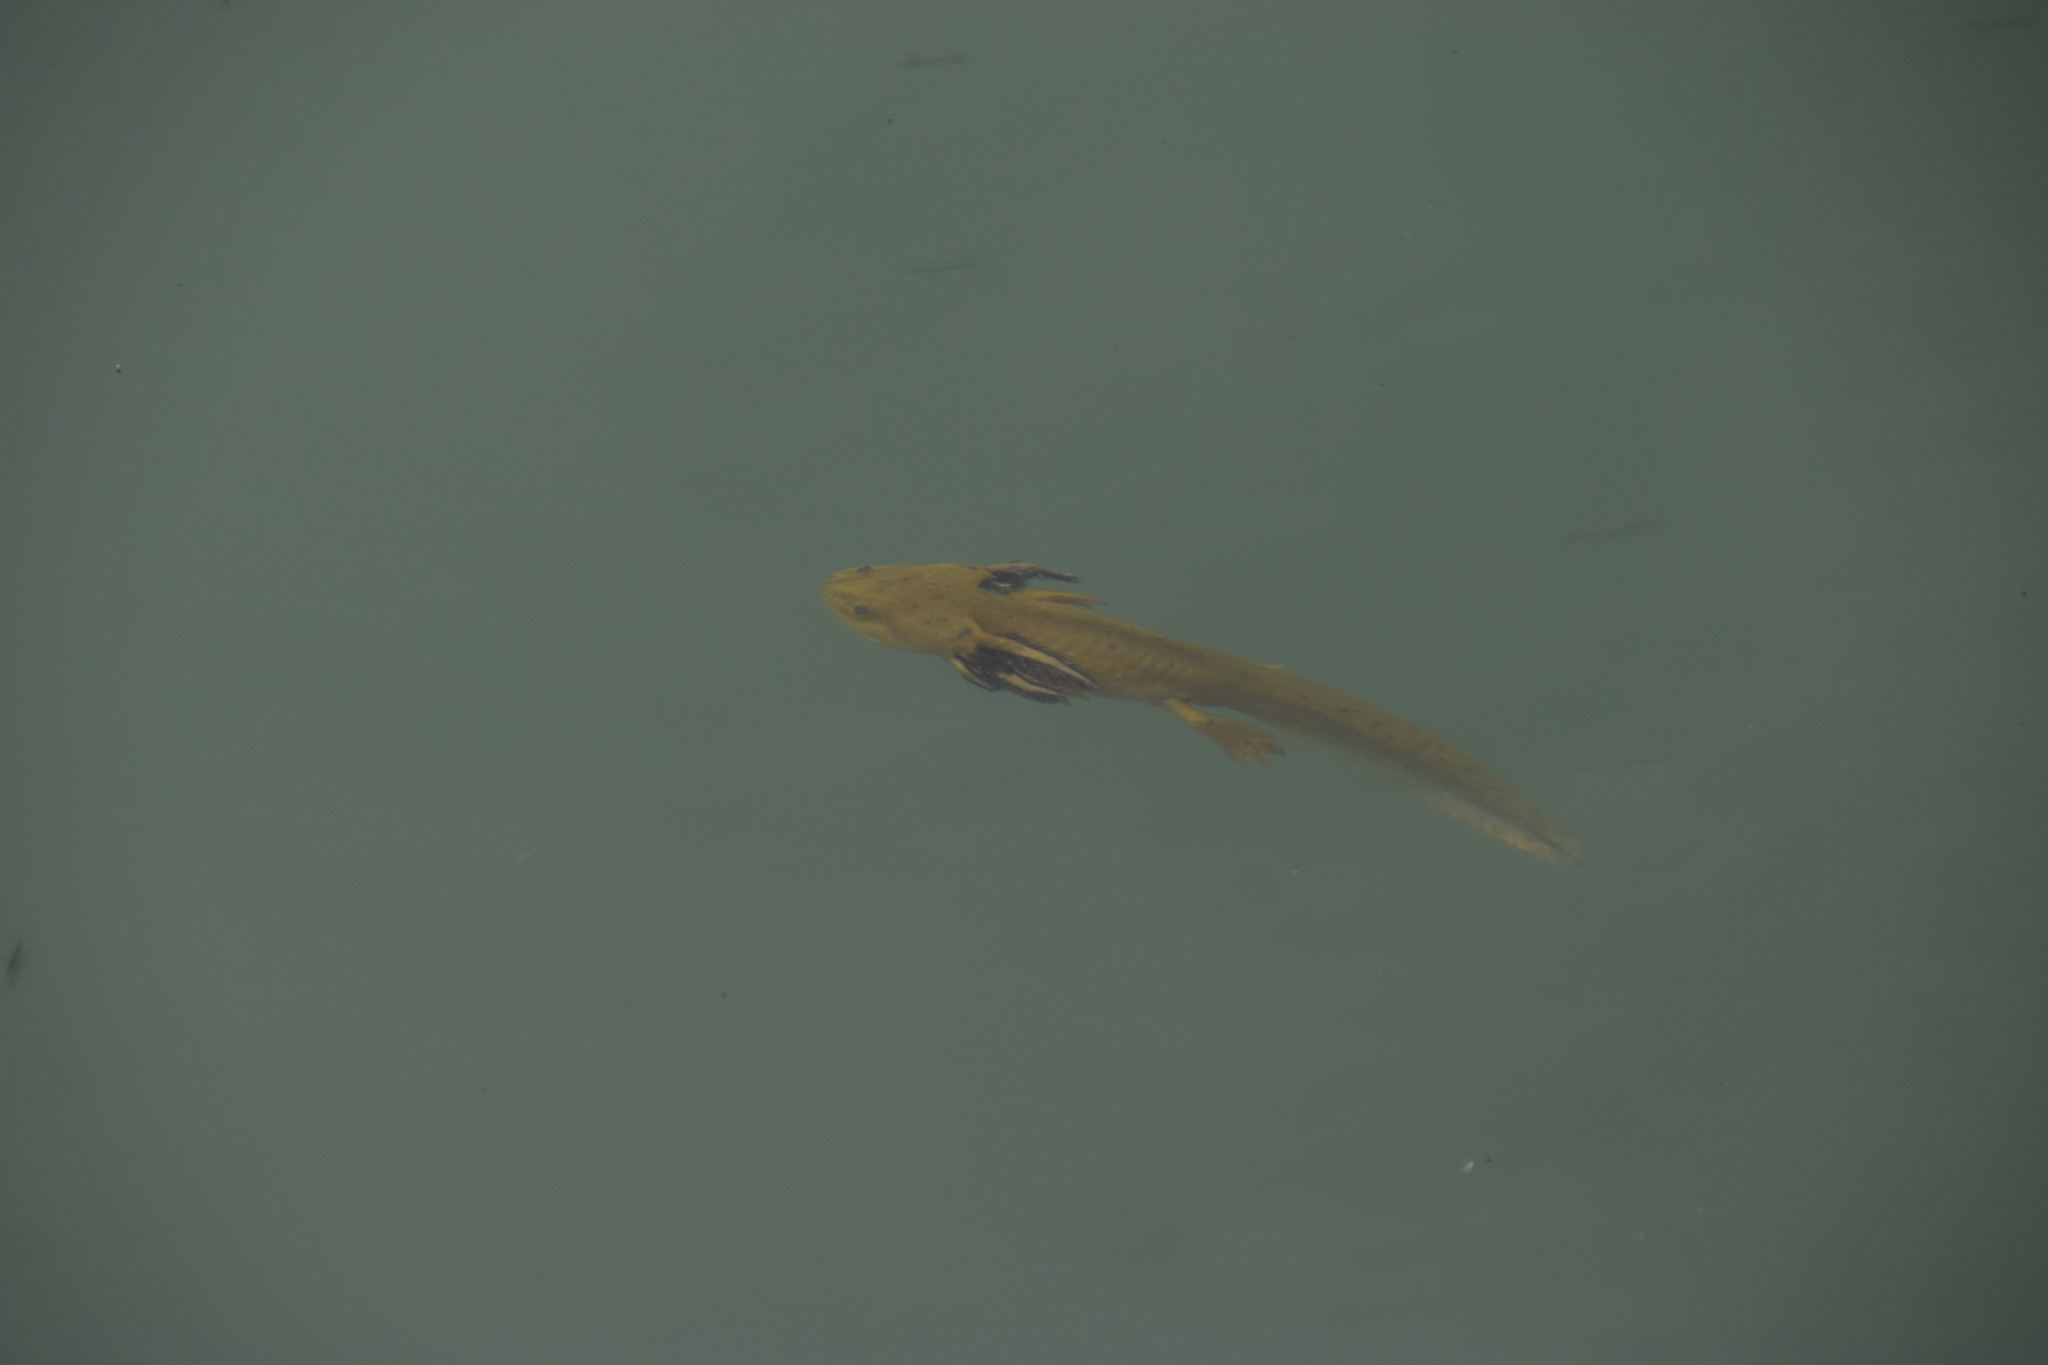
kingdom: Animalia
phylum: Chordata
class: Amphibia
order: Caudata
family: Ambystomatidae
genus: Ambystoma
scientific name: Ambystoma mavortium
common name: Western tiger salamander
